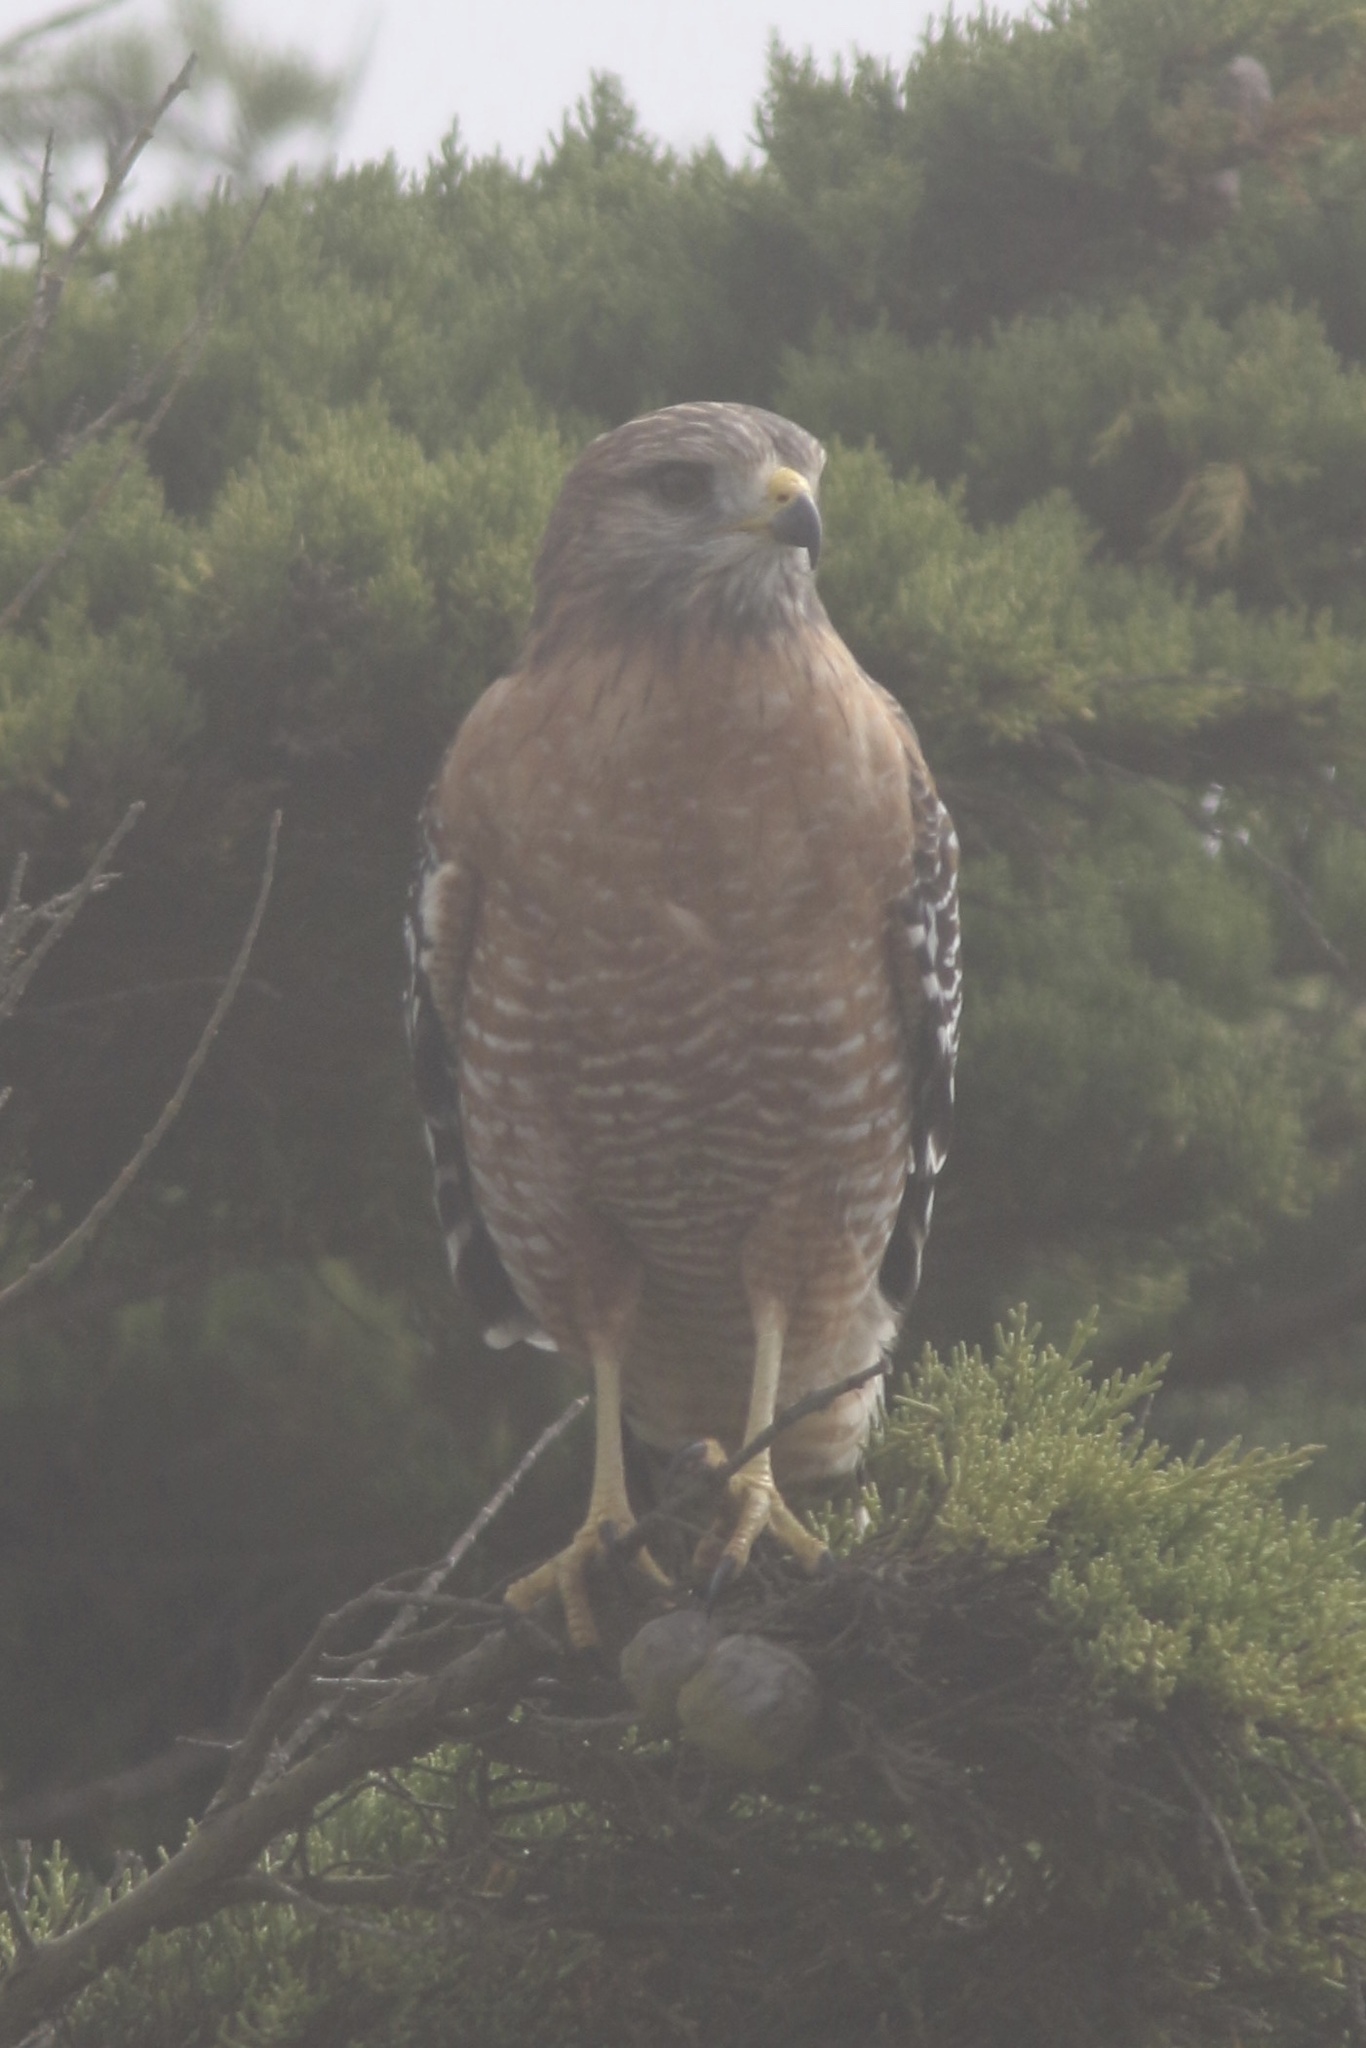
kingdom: Animalia
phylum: Chordata
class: Aves
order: Accipitriformes
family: Accipitridae
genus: Buteo
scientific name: Buteo lineatus
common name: Red-shouldered hawk
